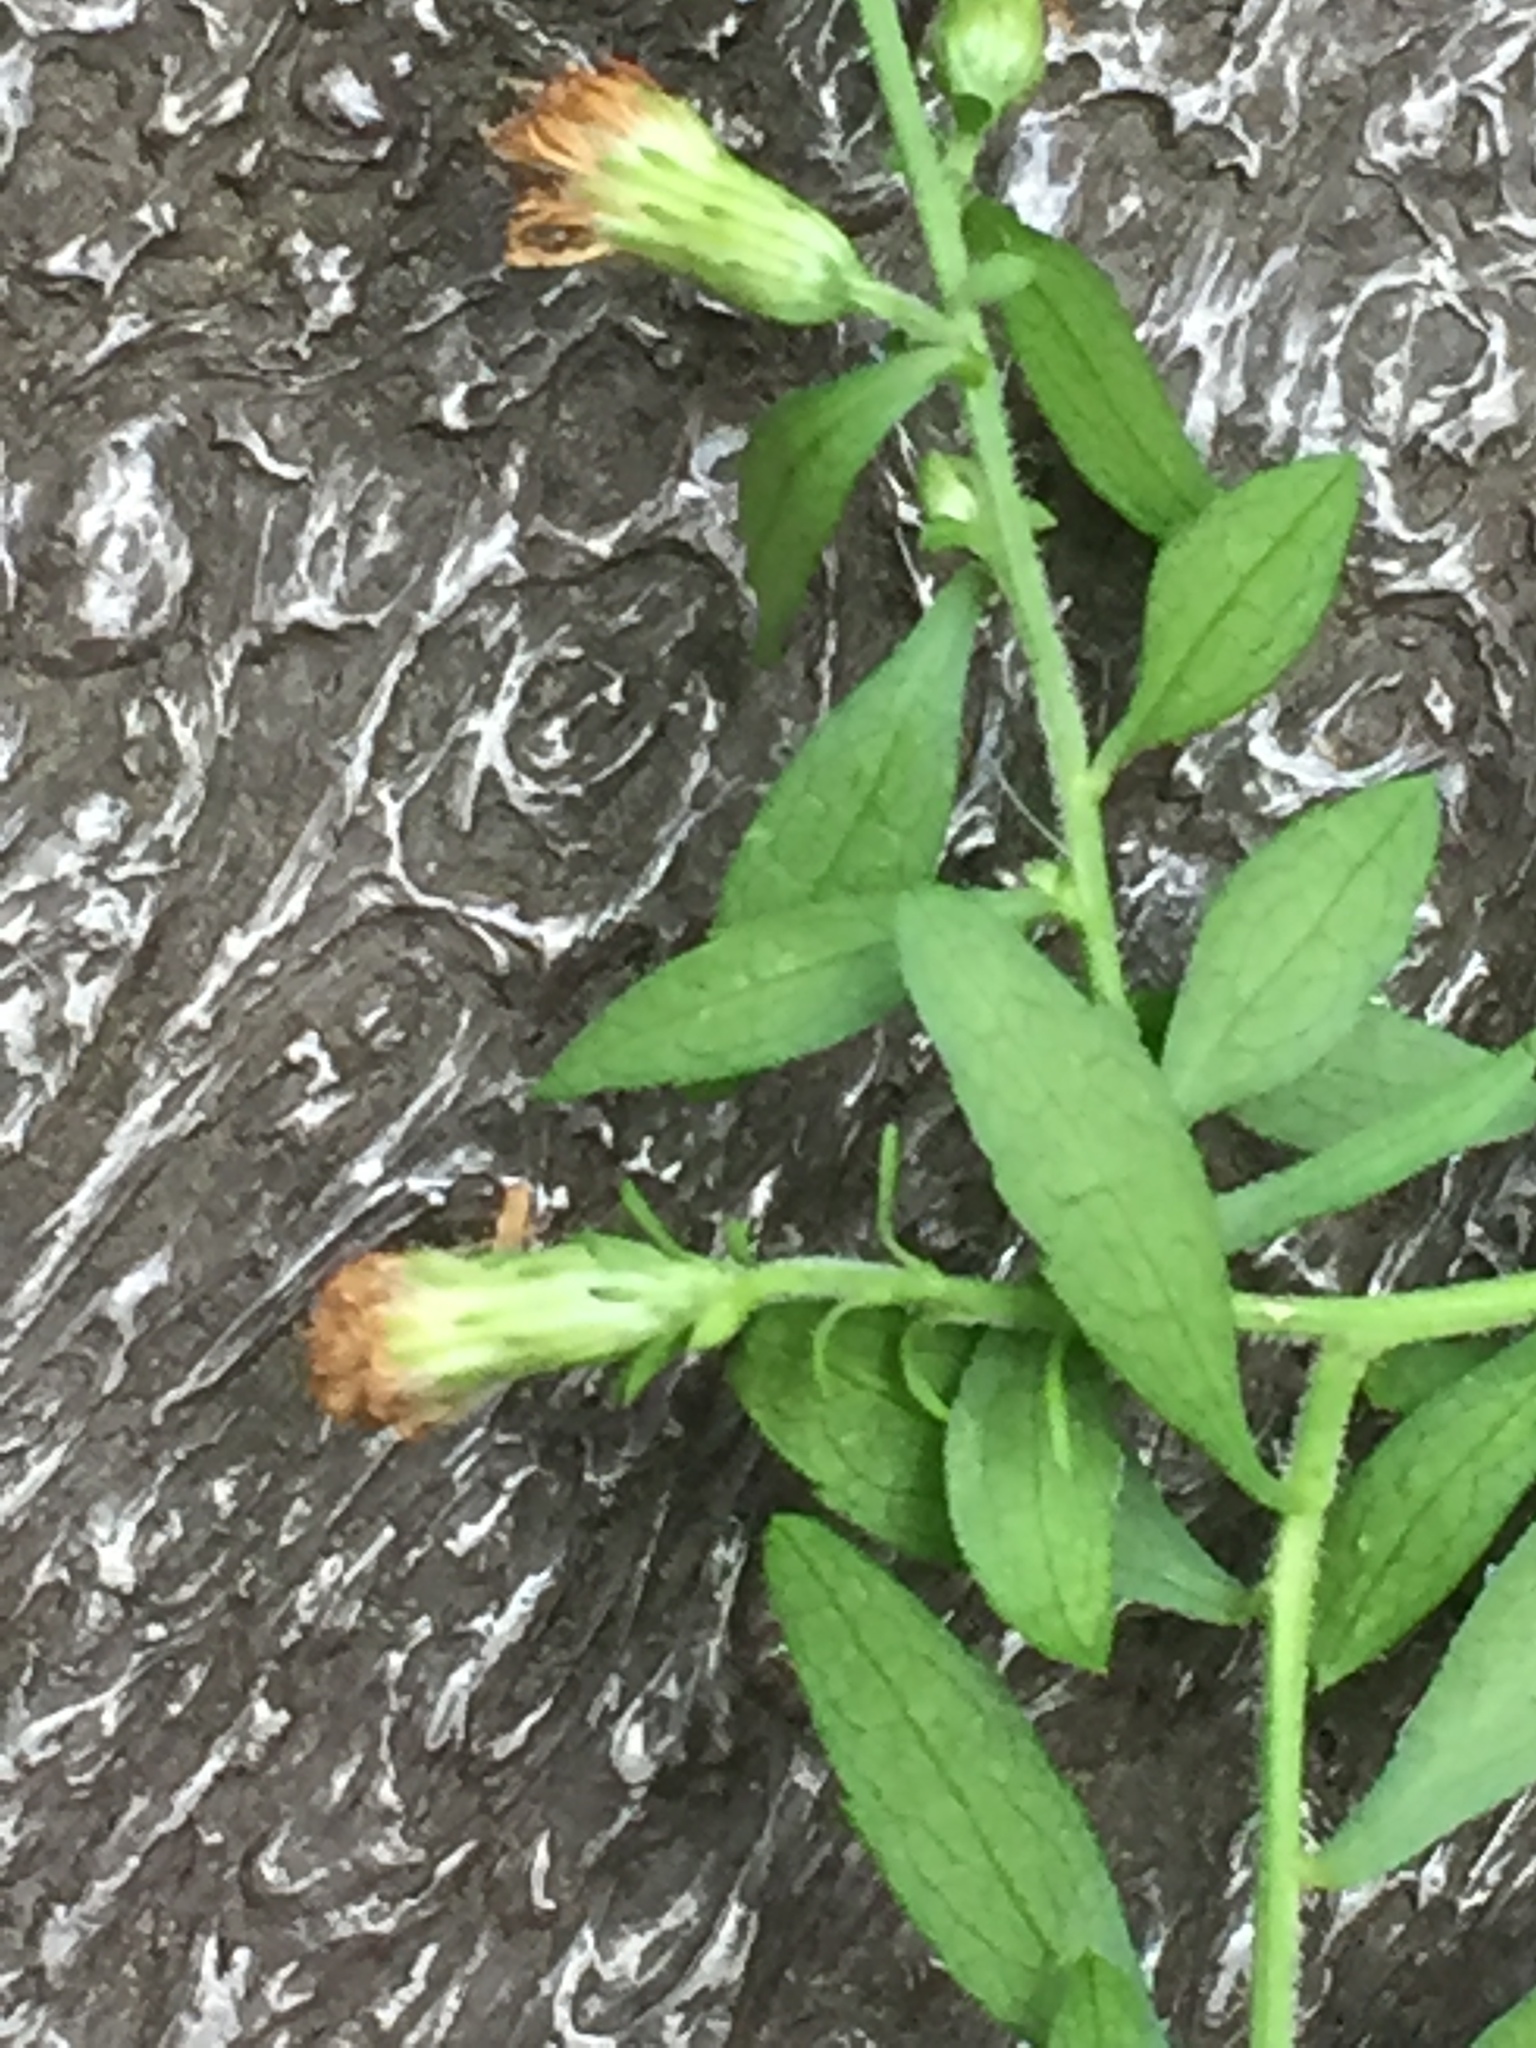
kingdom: Plantae
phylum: Tracheophyta
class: Magnoliopsida
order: Asterales
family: Asteraceae
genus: Symphyotrichum
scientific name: Symphyotrichum lateriflorum
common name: Calico aster
